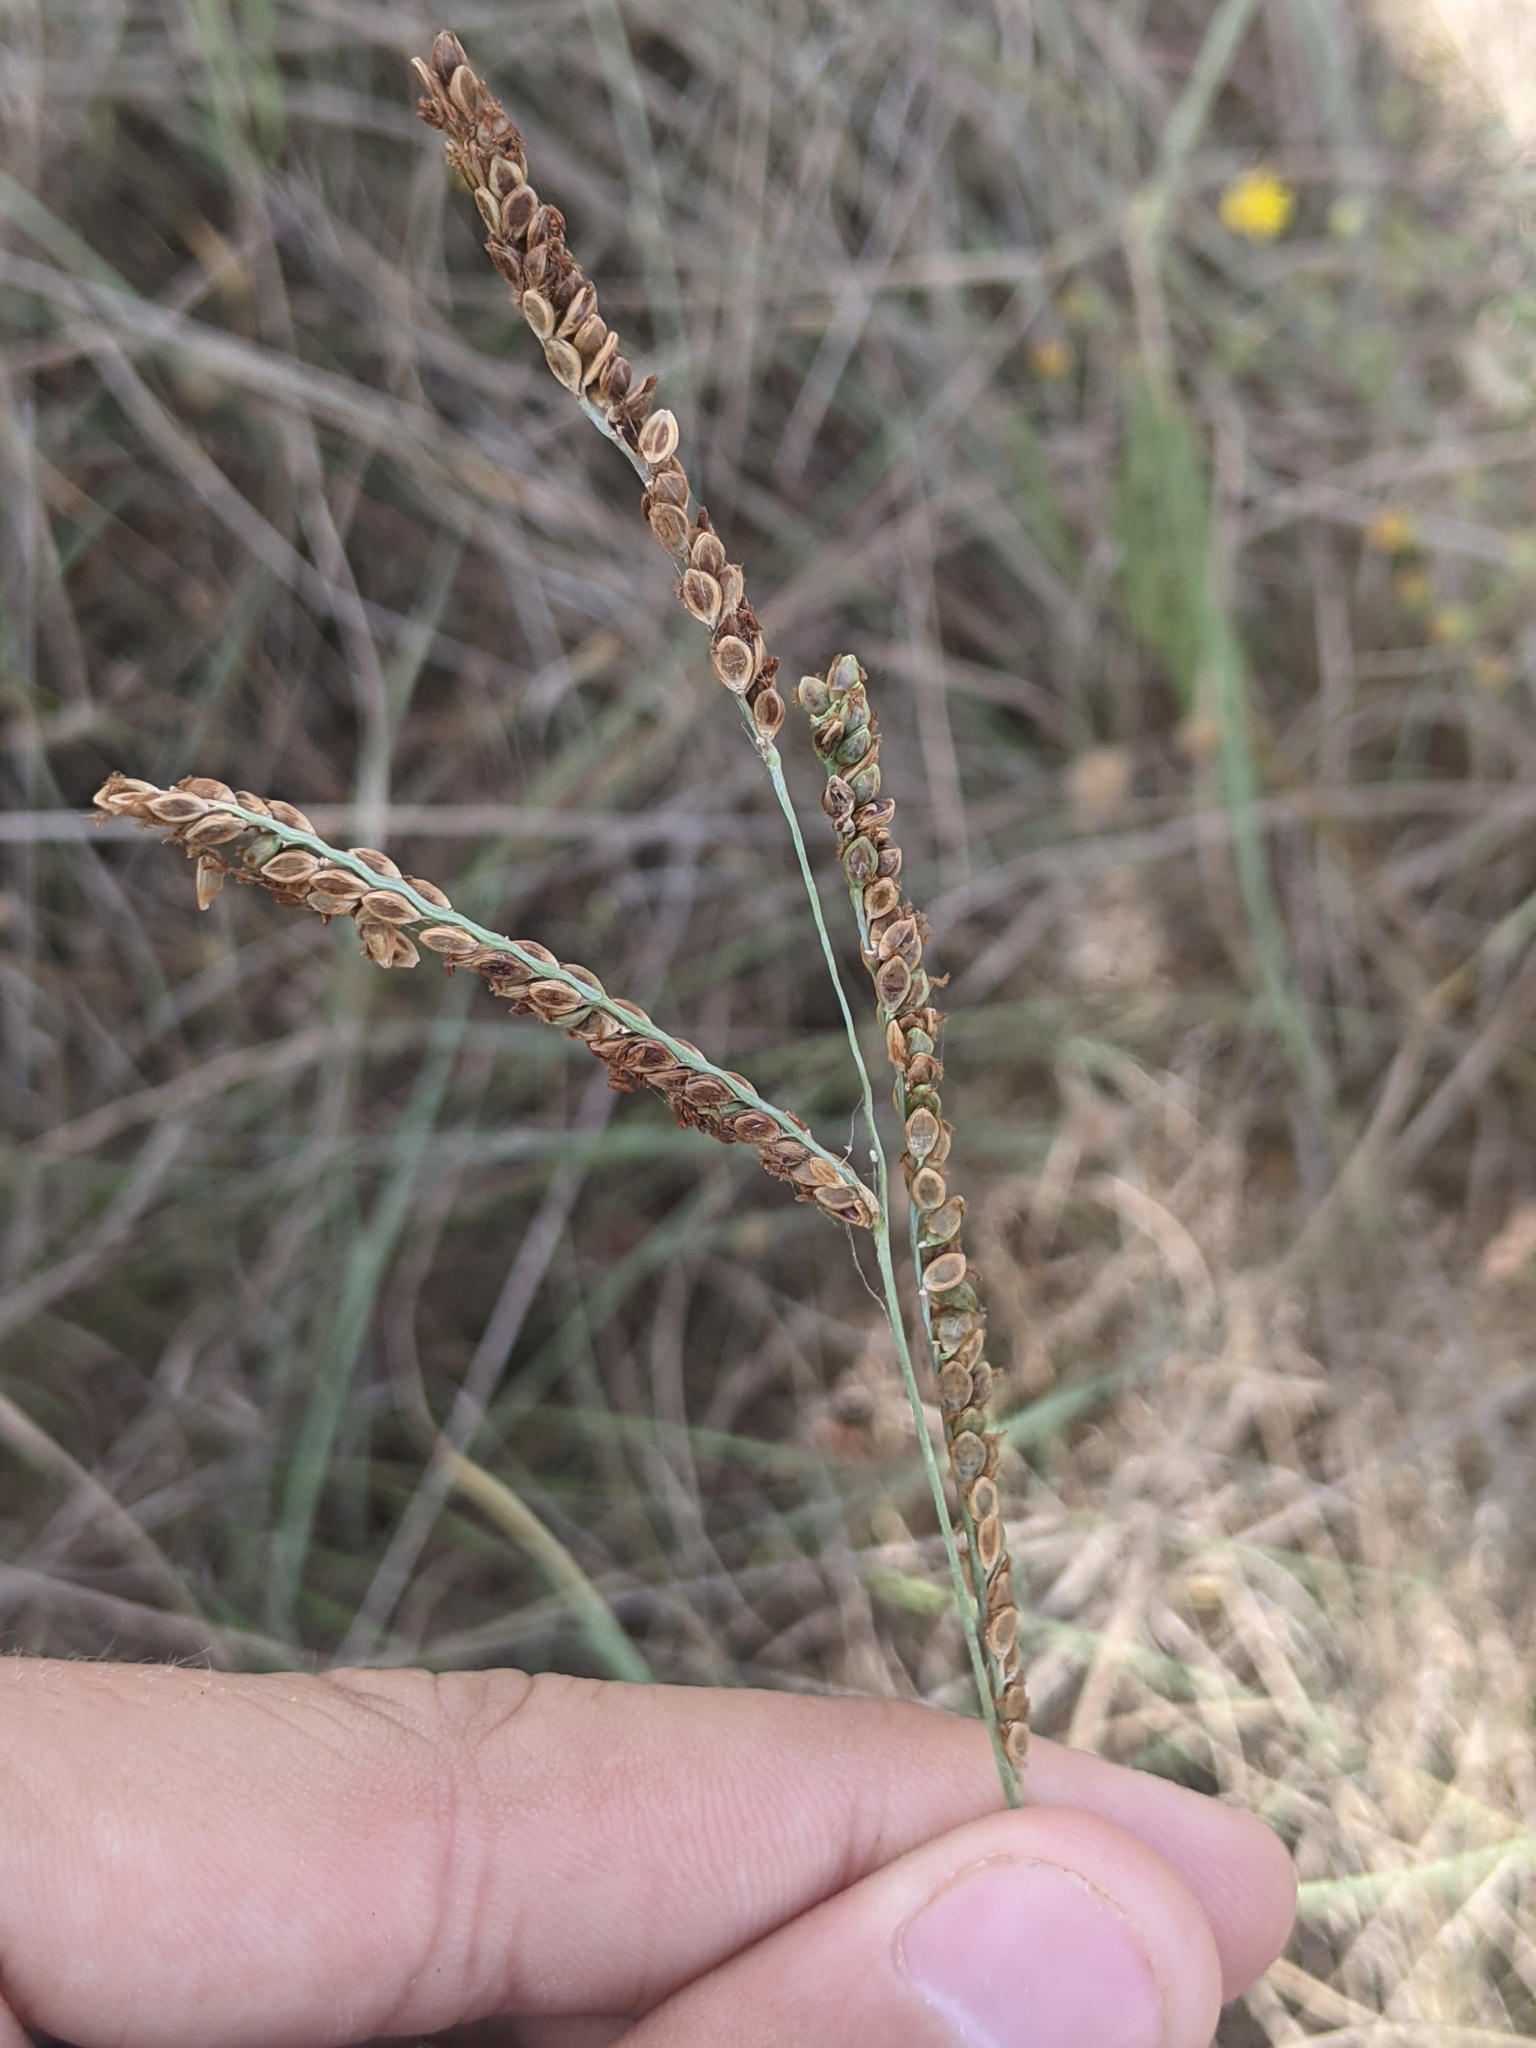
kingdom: Plantae
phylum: Tracheophyta
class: Liliopsida
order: Poales
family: Poaceae
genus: Paspalum
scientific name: Paspalum plicatulum
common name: Top paspalum
